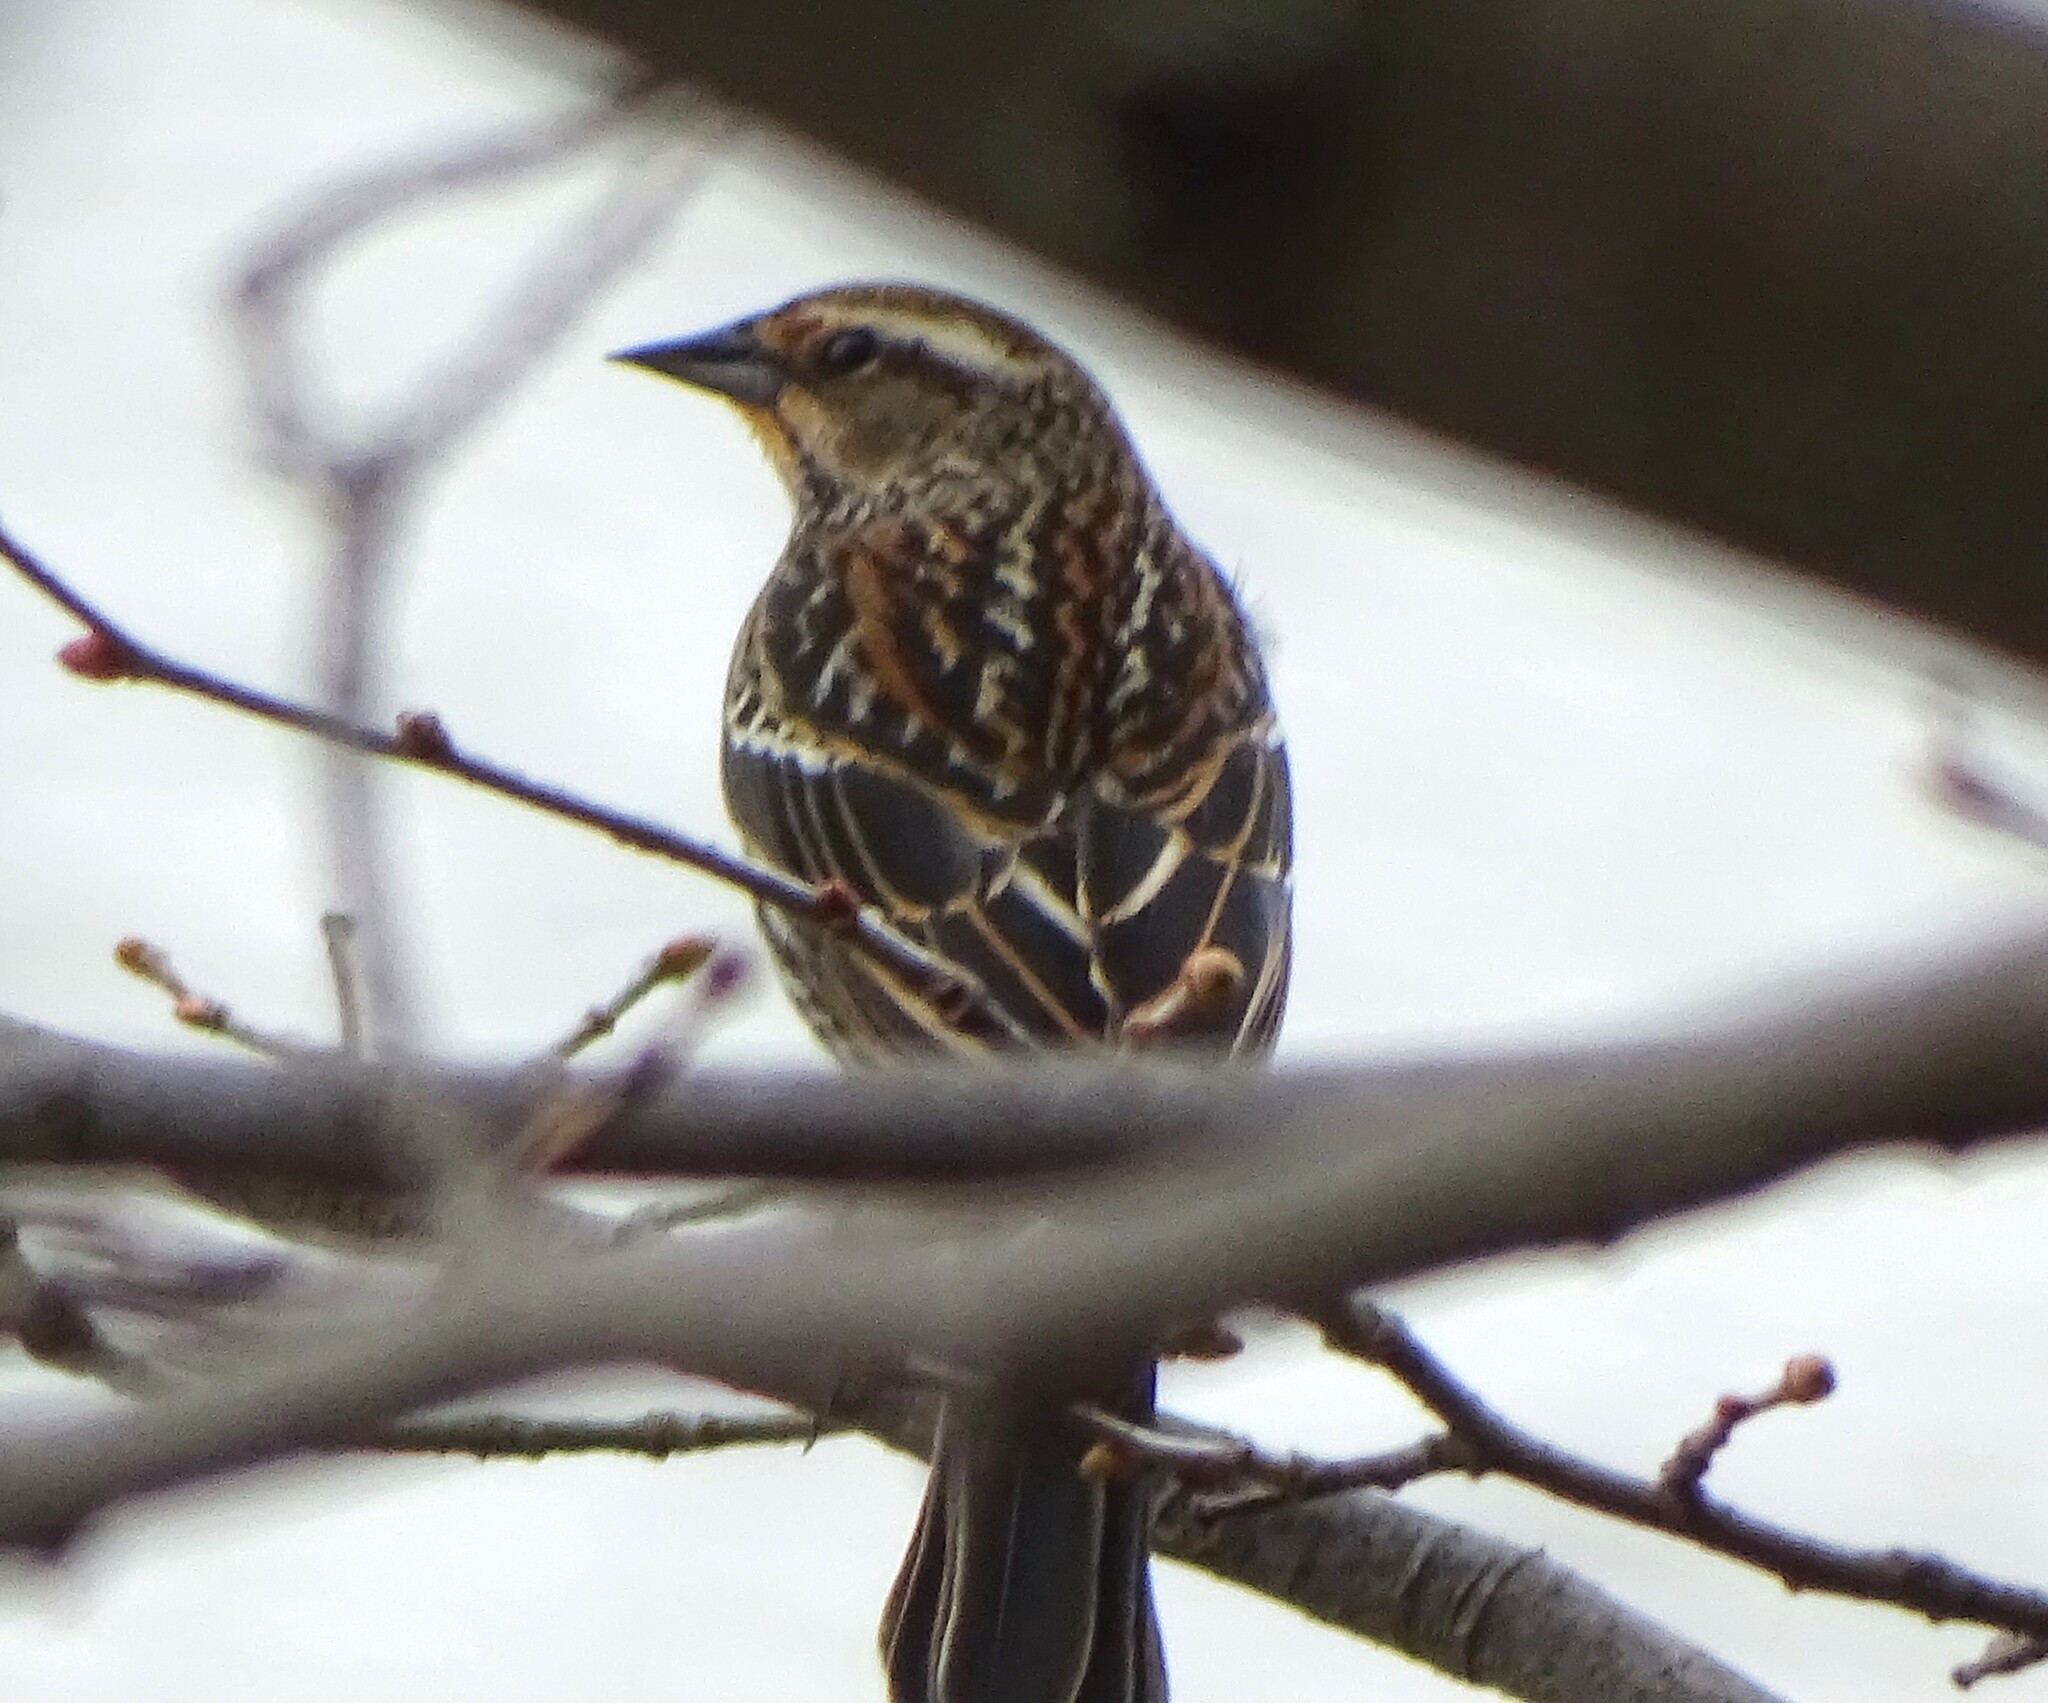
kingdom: Animalia
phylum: Chordata
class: Aves
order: Passeriformes
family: Icteridae
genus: Agelaius
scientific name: Agelaius phoeniceus
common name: Red-winged blackbird
